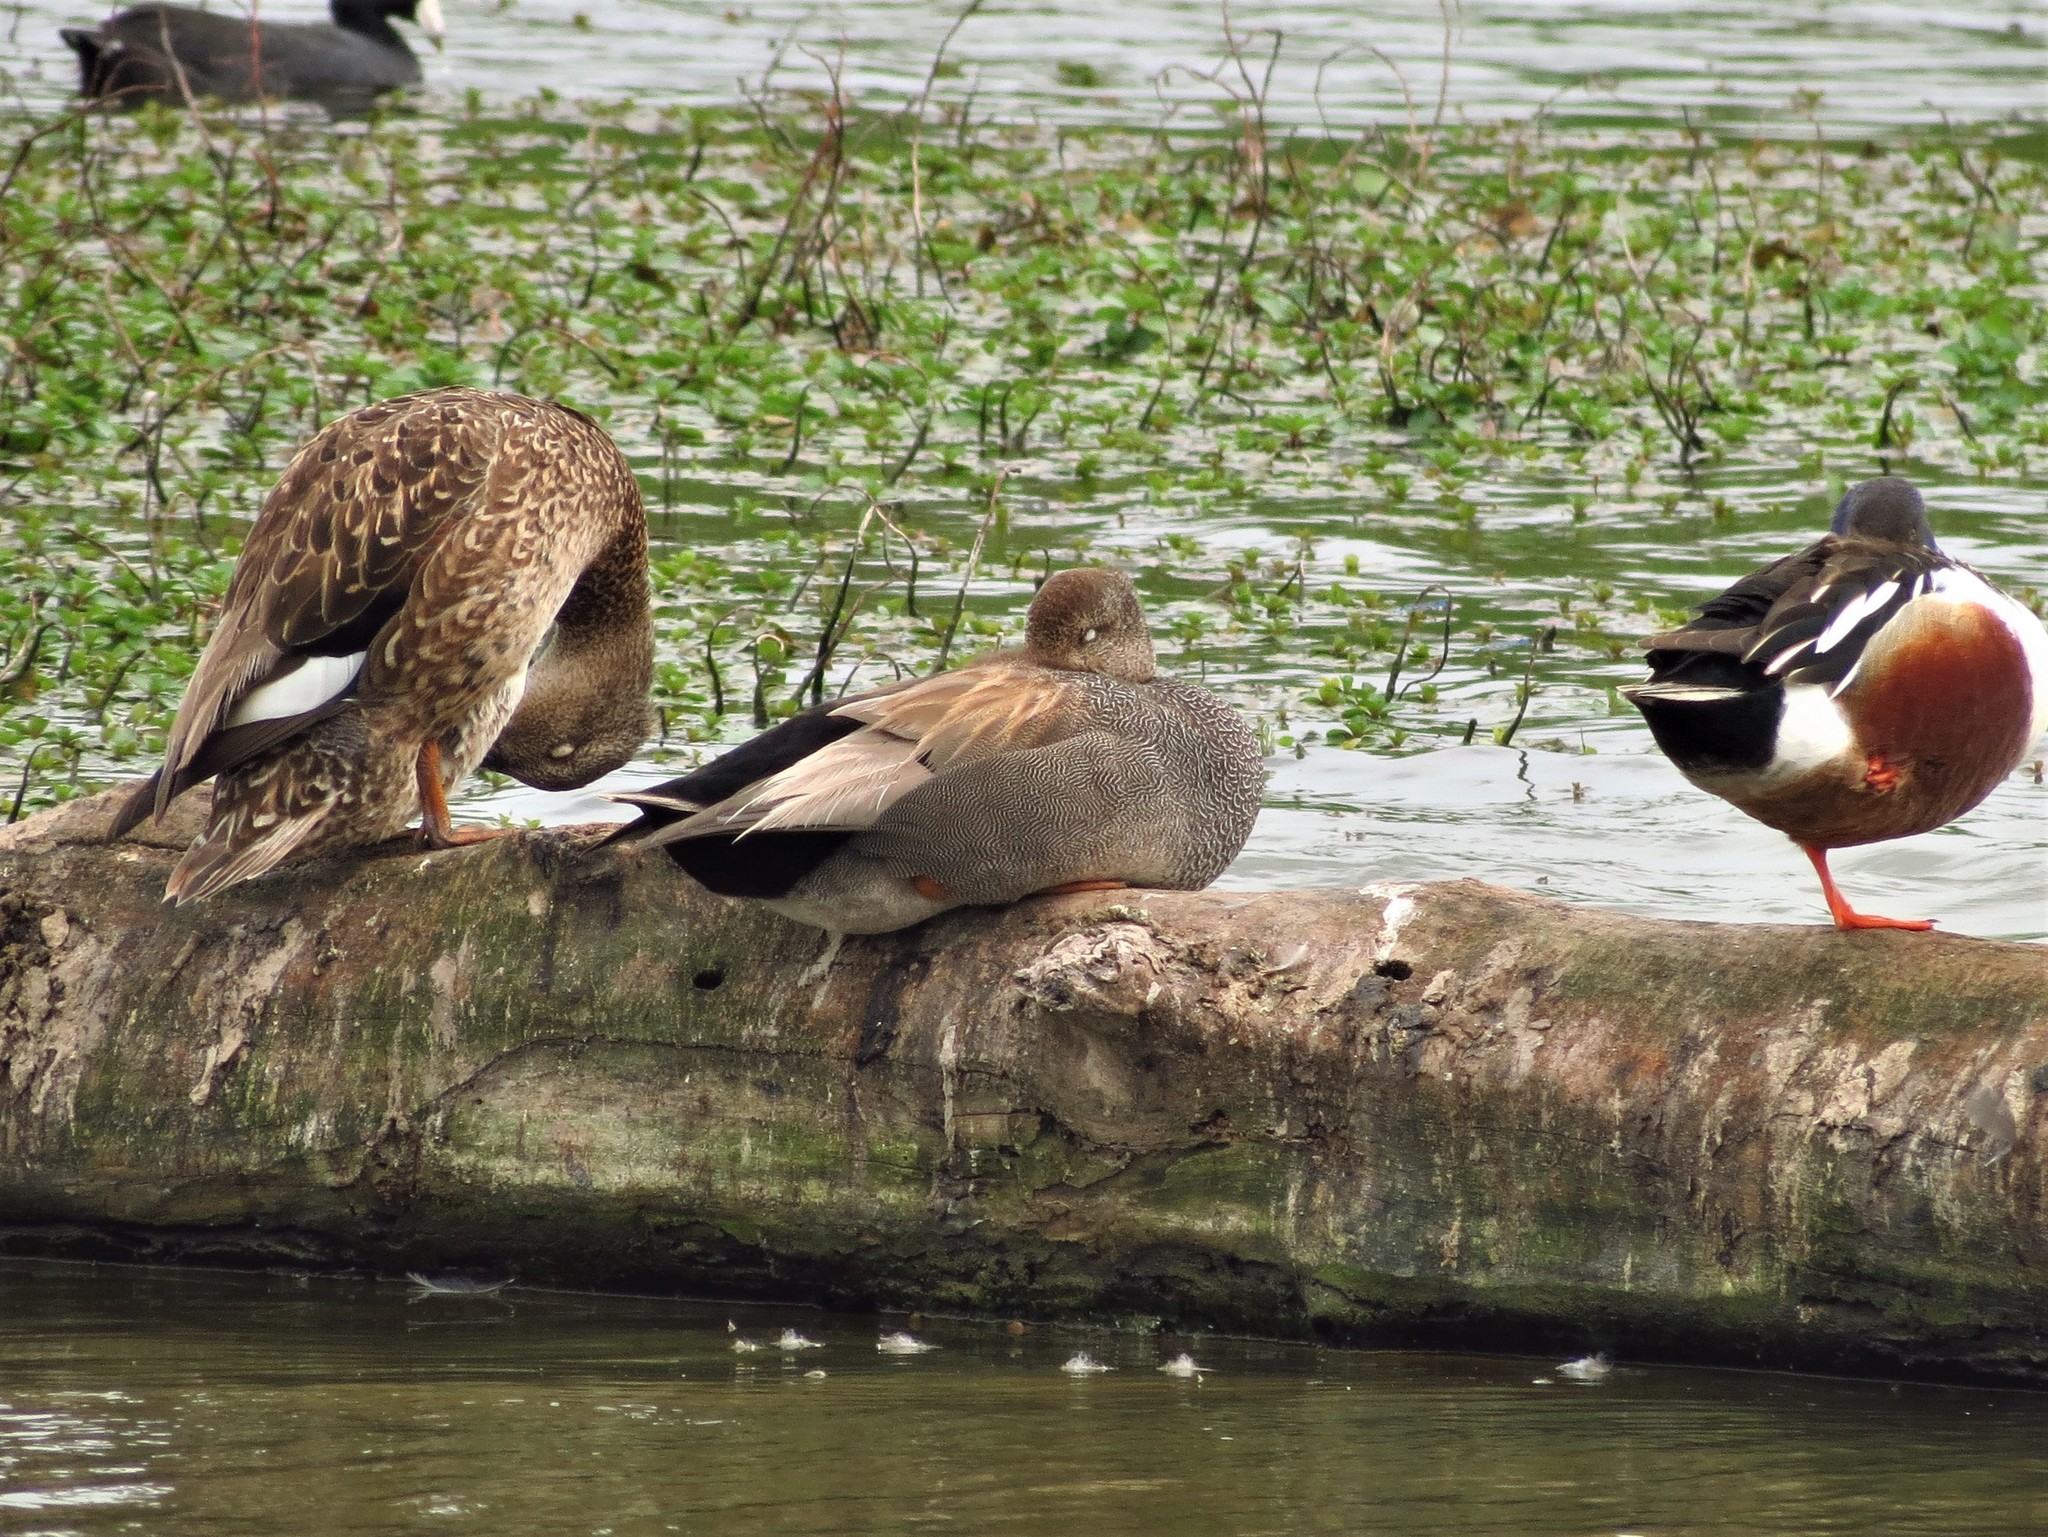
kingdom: Animalia
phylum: Chordata
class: Aves
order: Anseriformes
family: Anatidae
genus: Mareca
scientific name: Mareca strepera
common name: Gadwall
